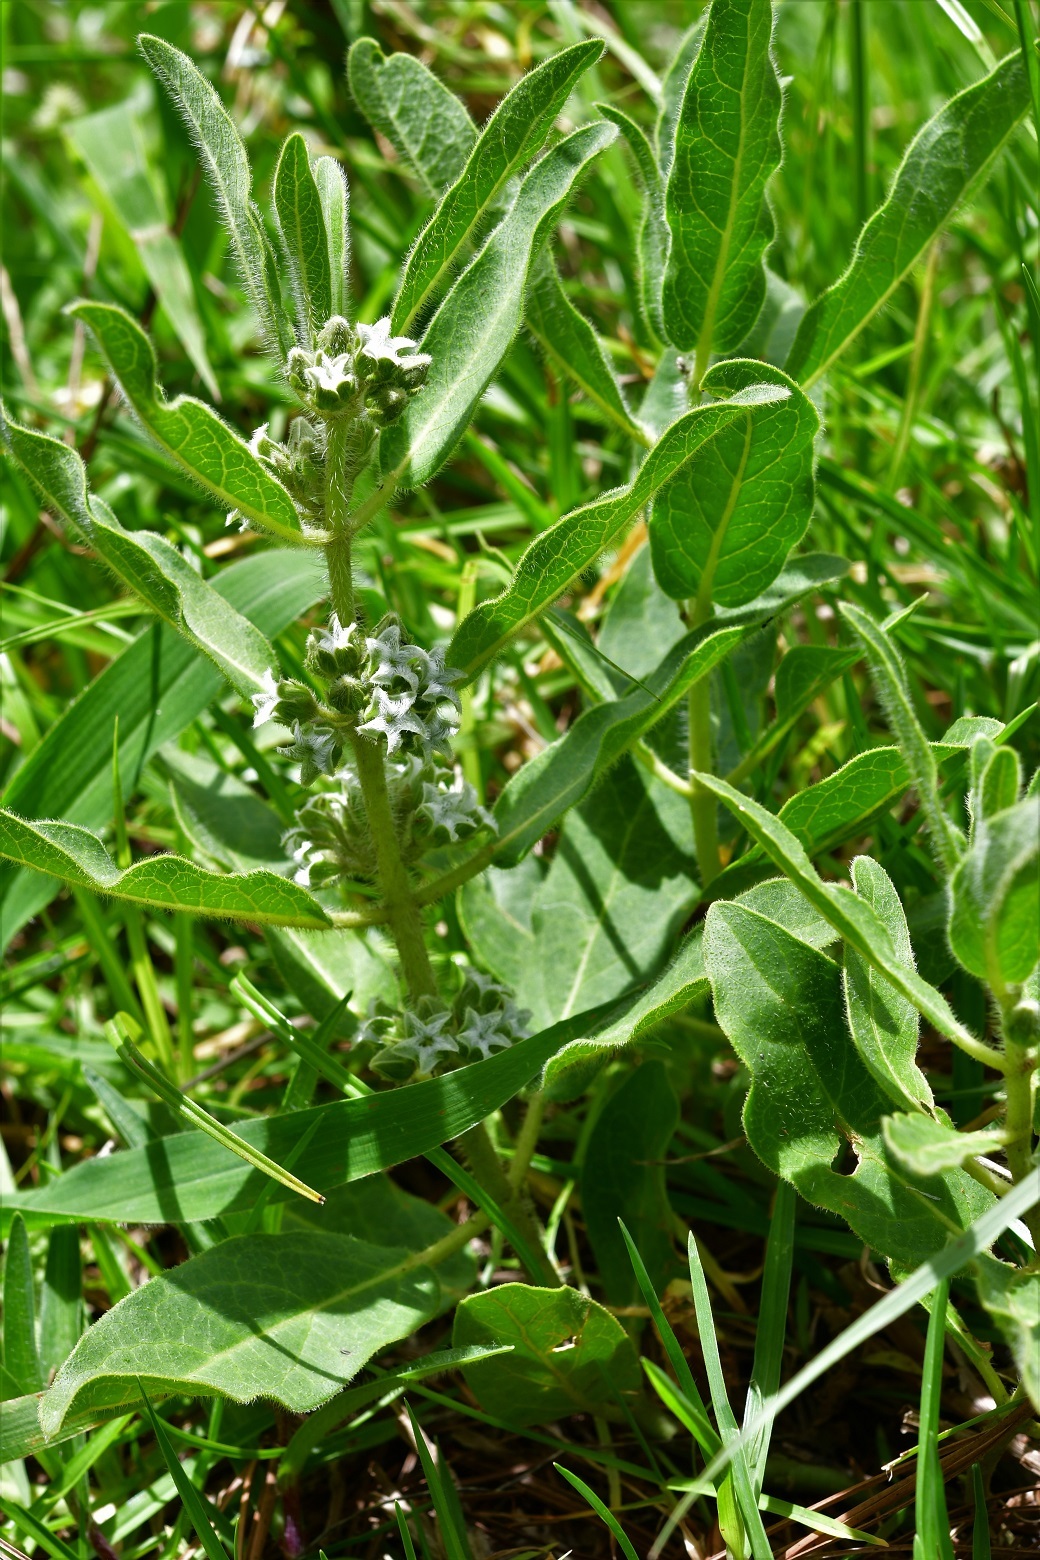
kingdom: Plantae
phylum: Tracheophyta
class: Magnoliopsida
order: Gentianales
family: Apocynaceae
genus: Pherotrichis
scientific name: Pherotrichis villosa
